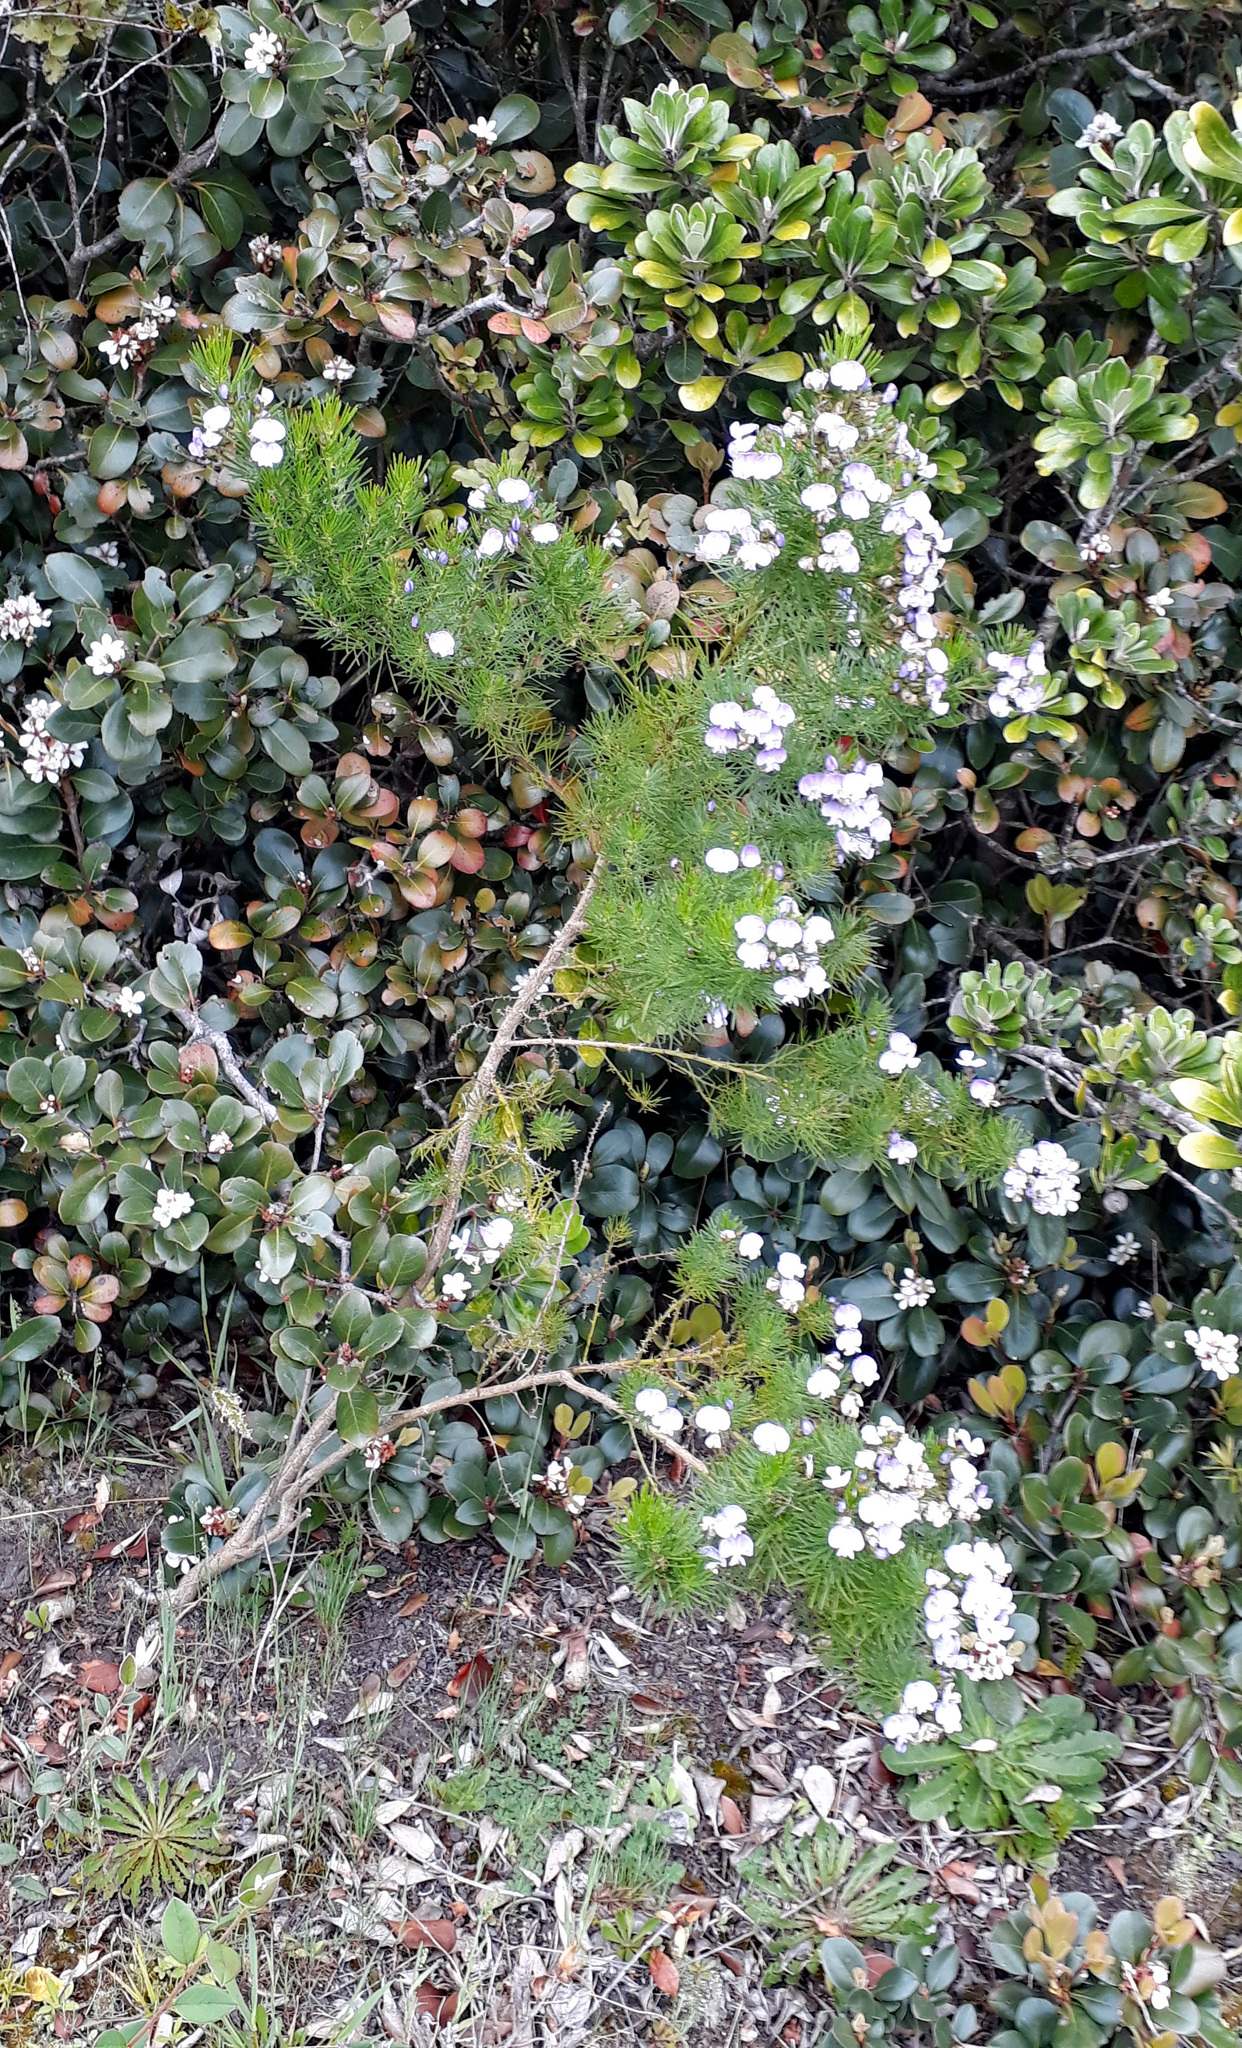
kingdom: Plantae
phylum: Tracheophyta
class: Magnoliopsida
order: Fabales
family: Fabaceae
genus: Psoralea
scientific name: Psoralea pinnata
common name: African scurfpea
